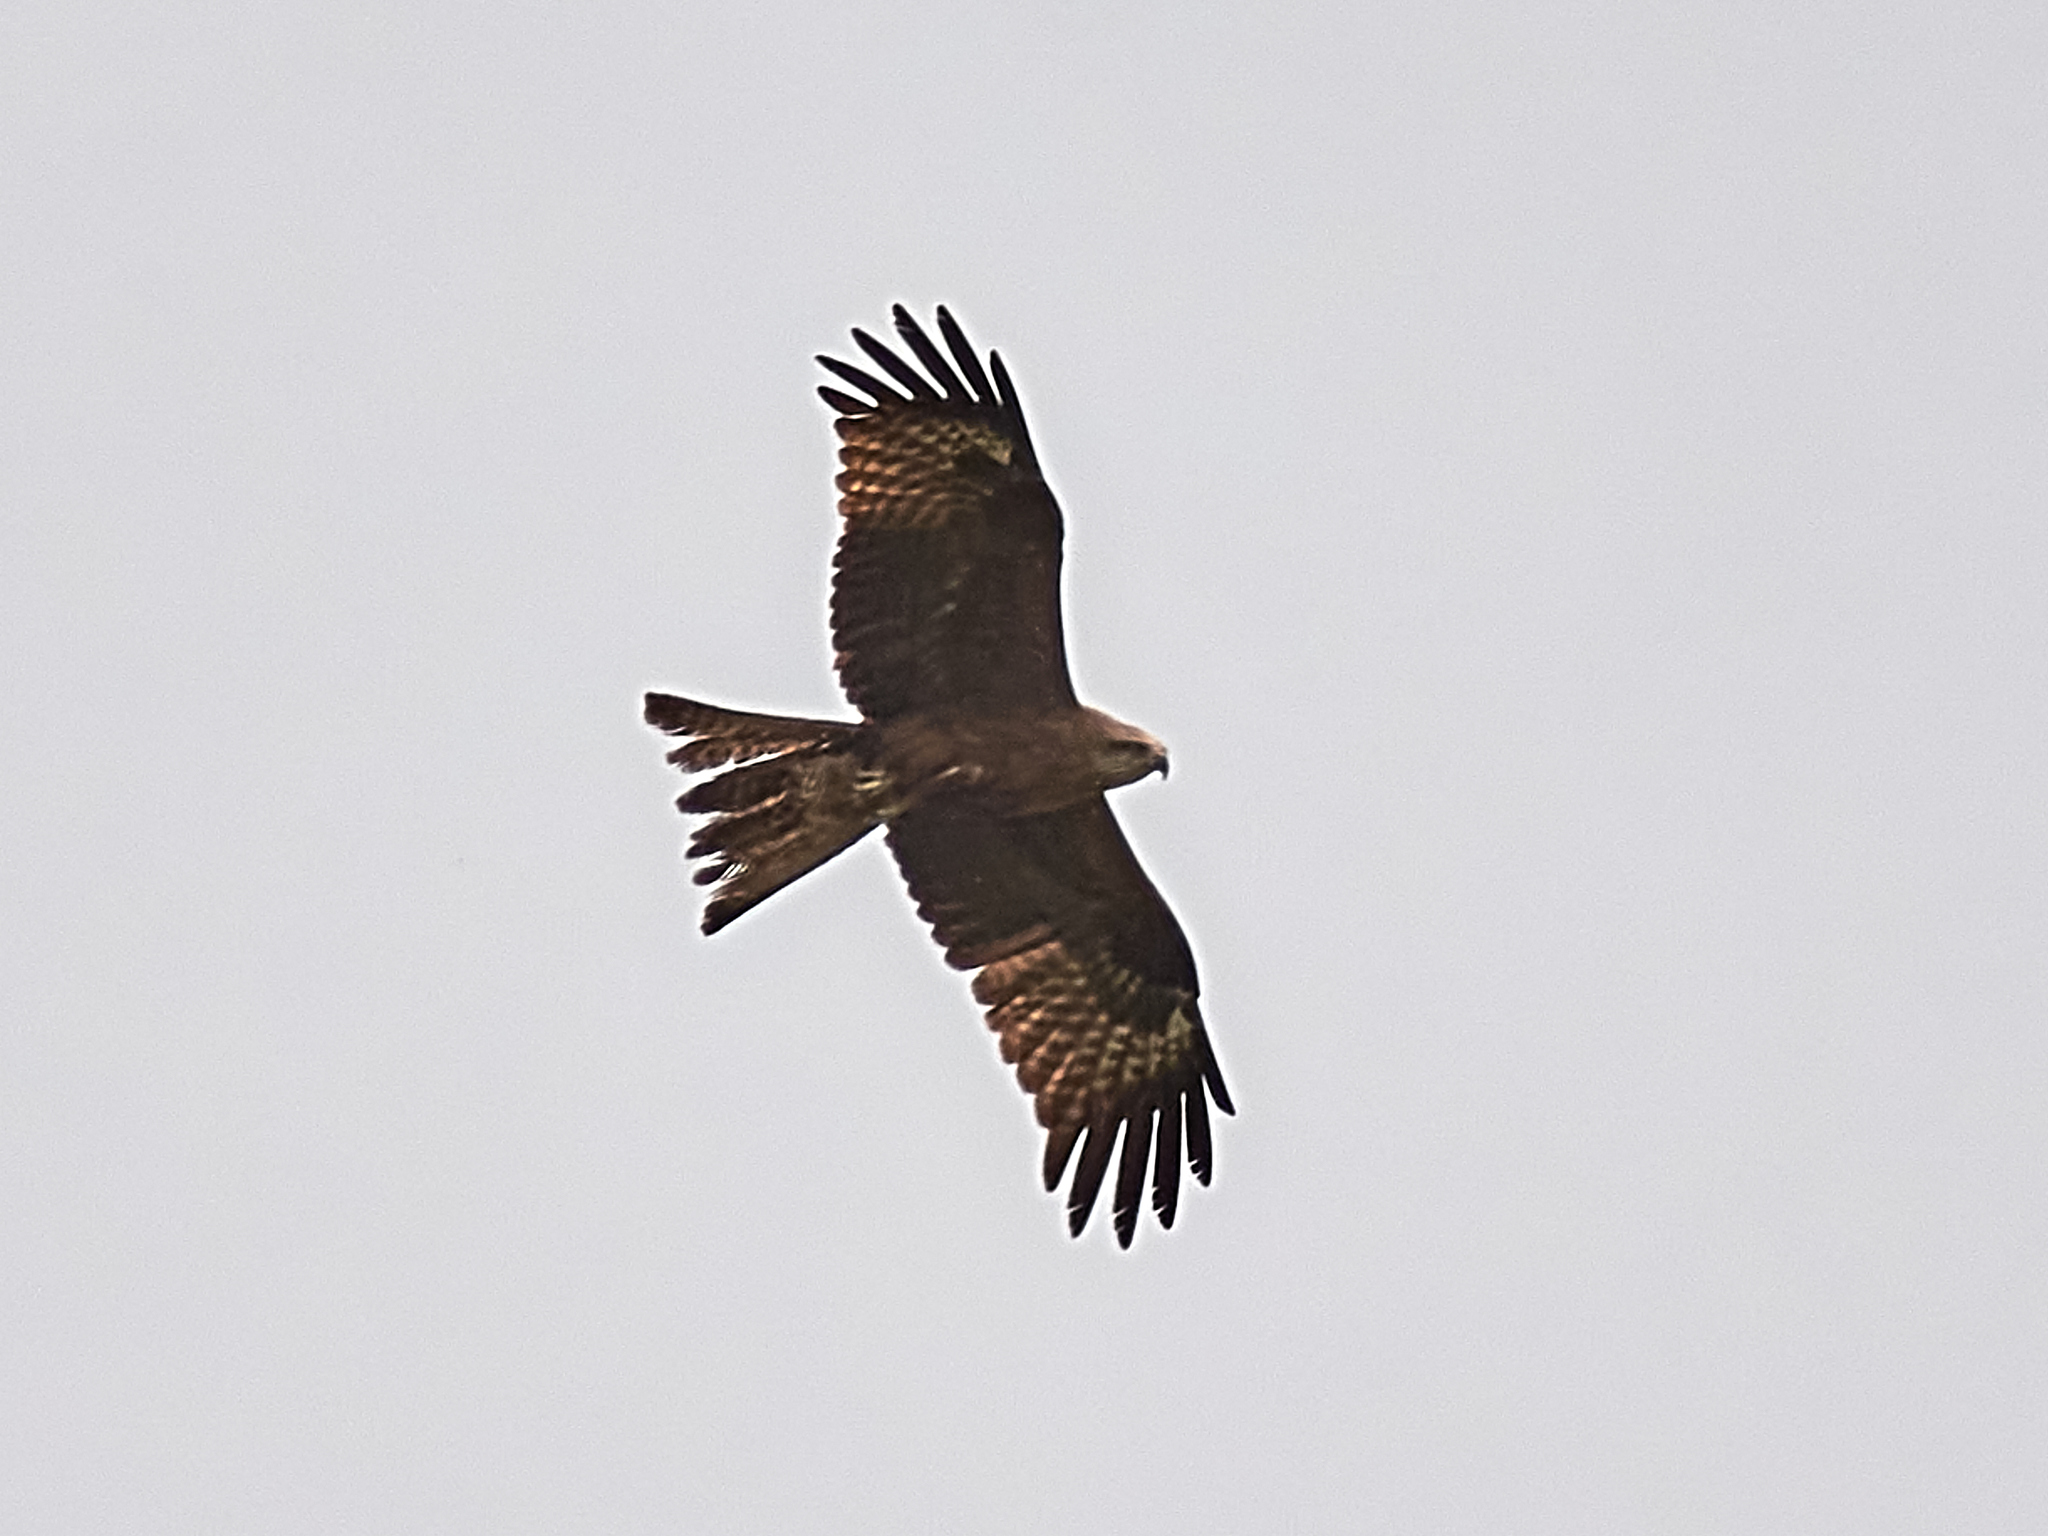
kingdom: Animalia
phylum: Chordata
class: Aves
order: Accipitriformes
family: Accipitridae
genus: Milvus
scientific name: Milvus migrans
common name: Black kite
